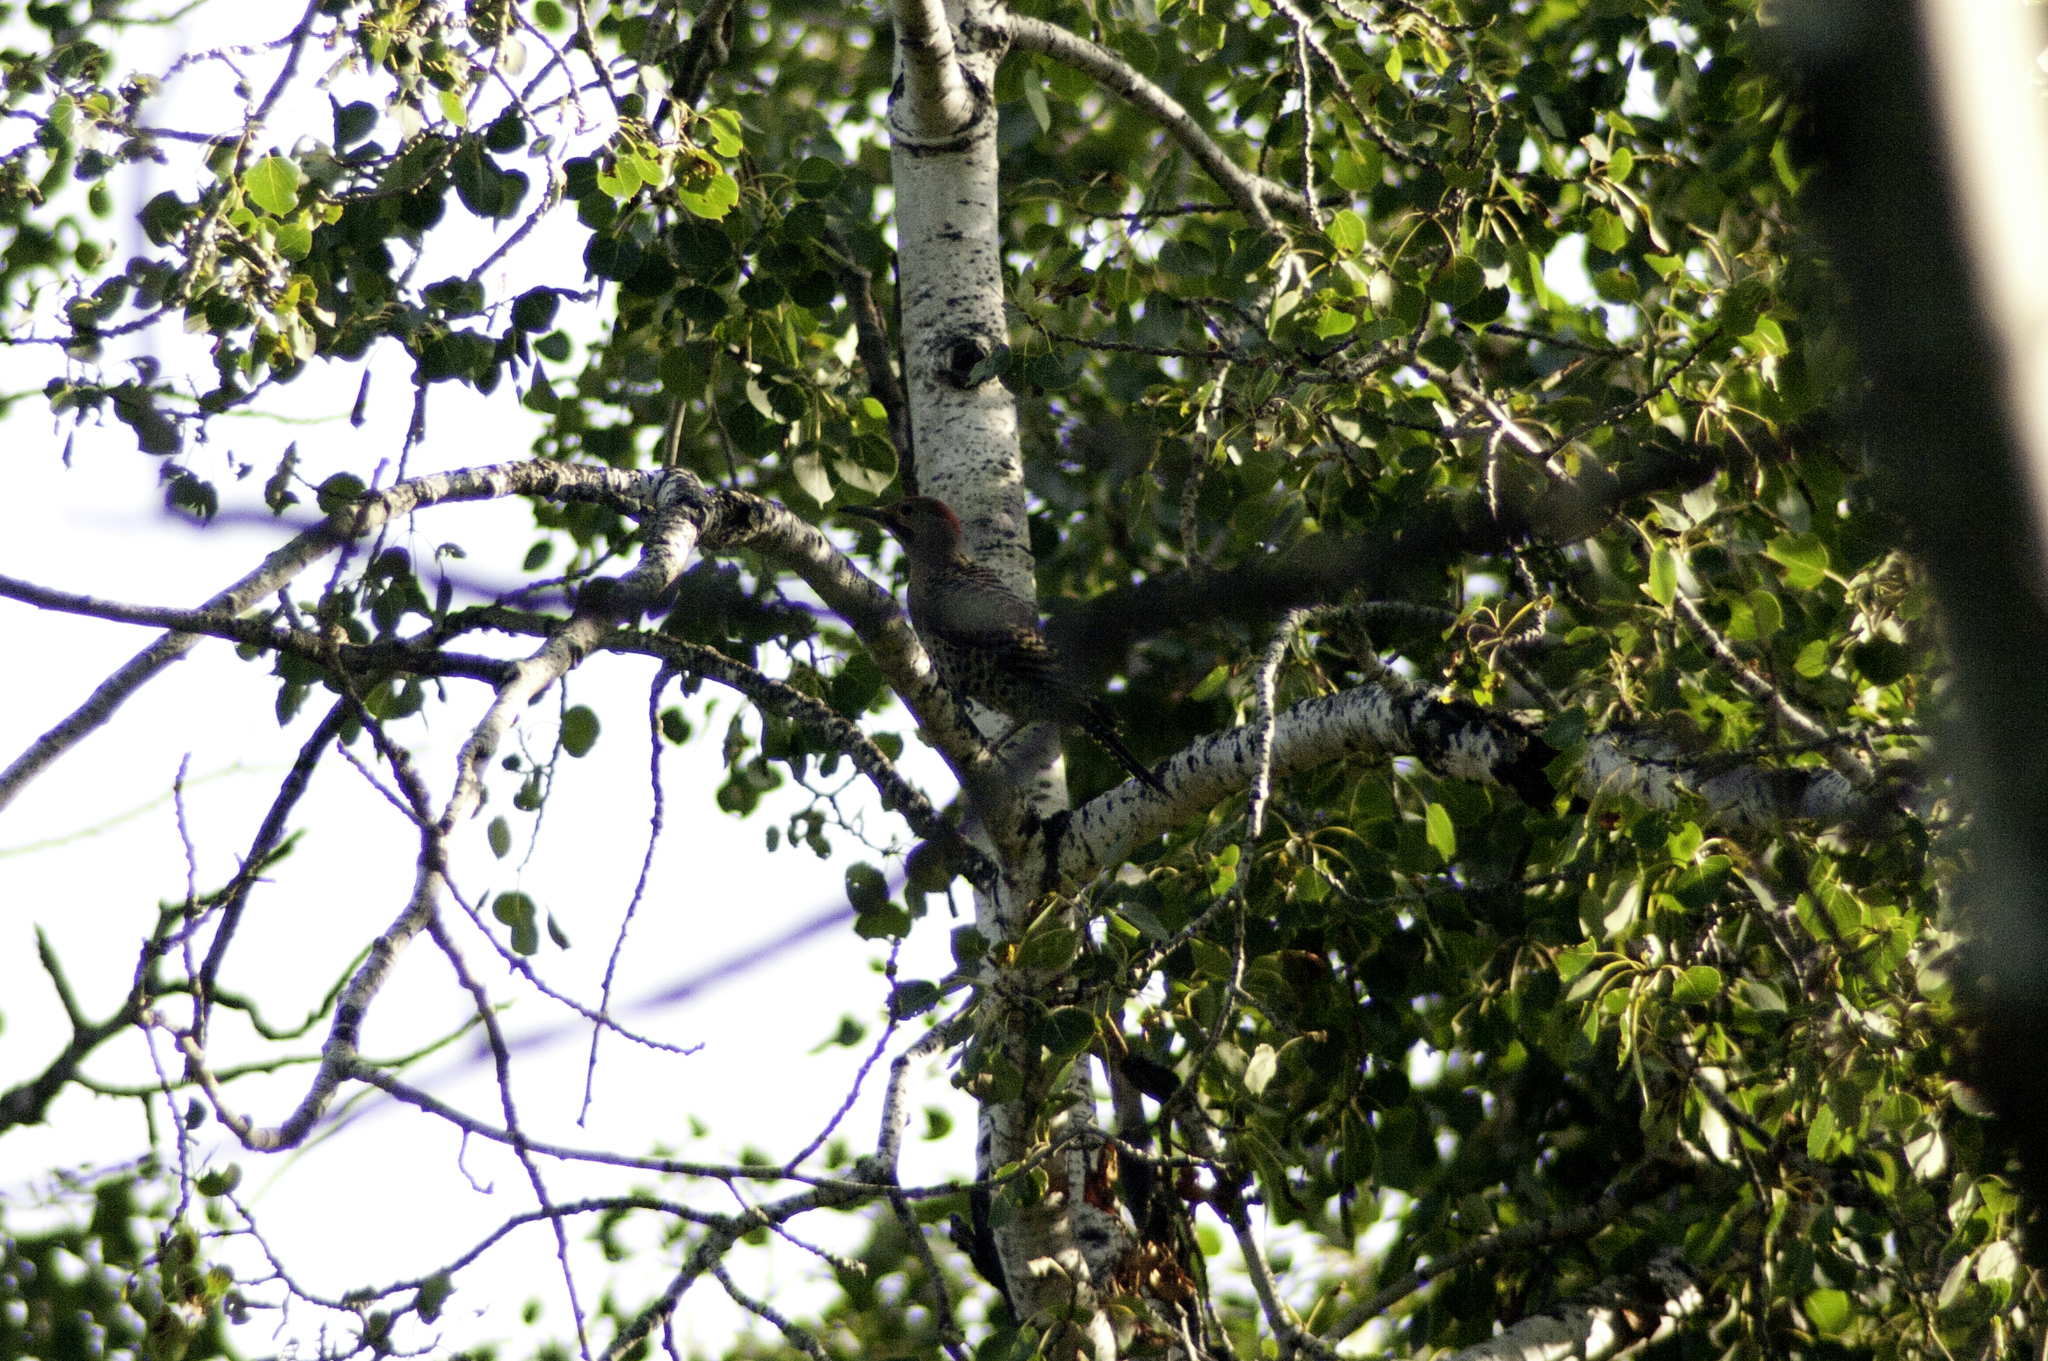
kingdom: Animalia
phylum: Chordata
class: Aves
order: Piciformes
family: Picidae
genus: Colaptes
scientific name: Colaptes auratus
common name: Northern flicker
